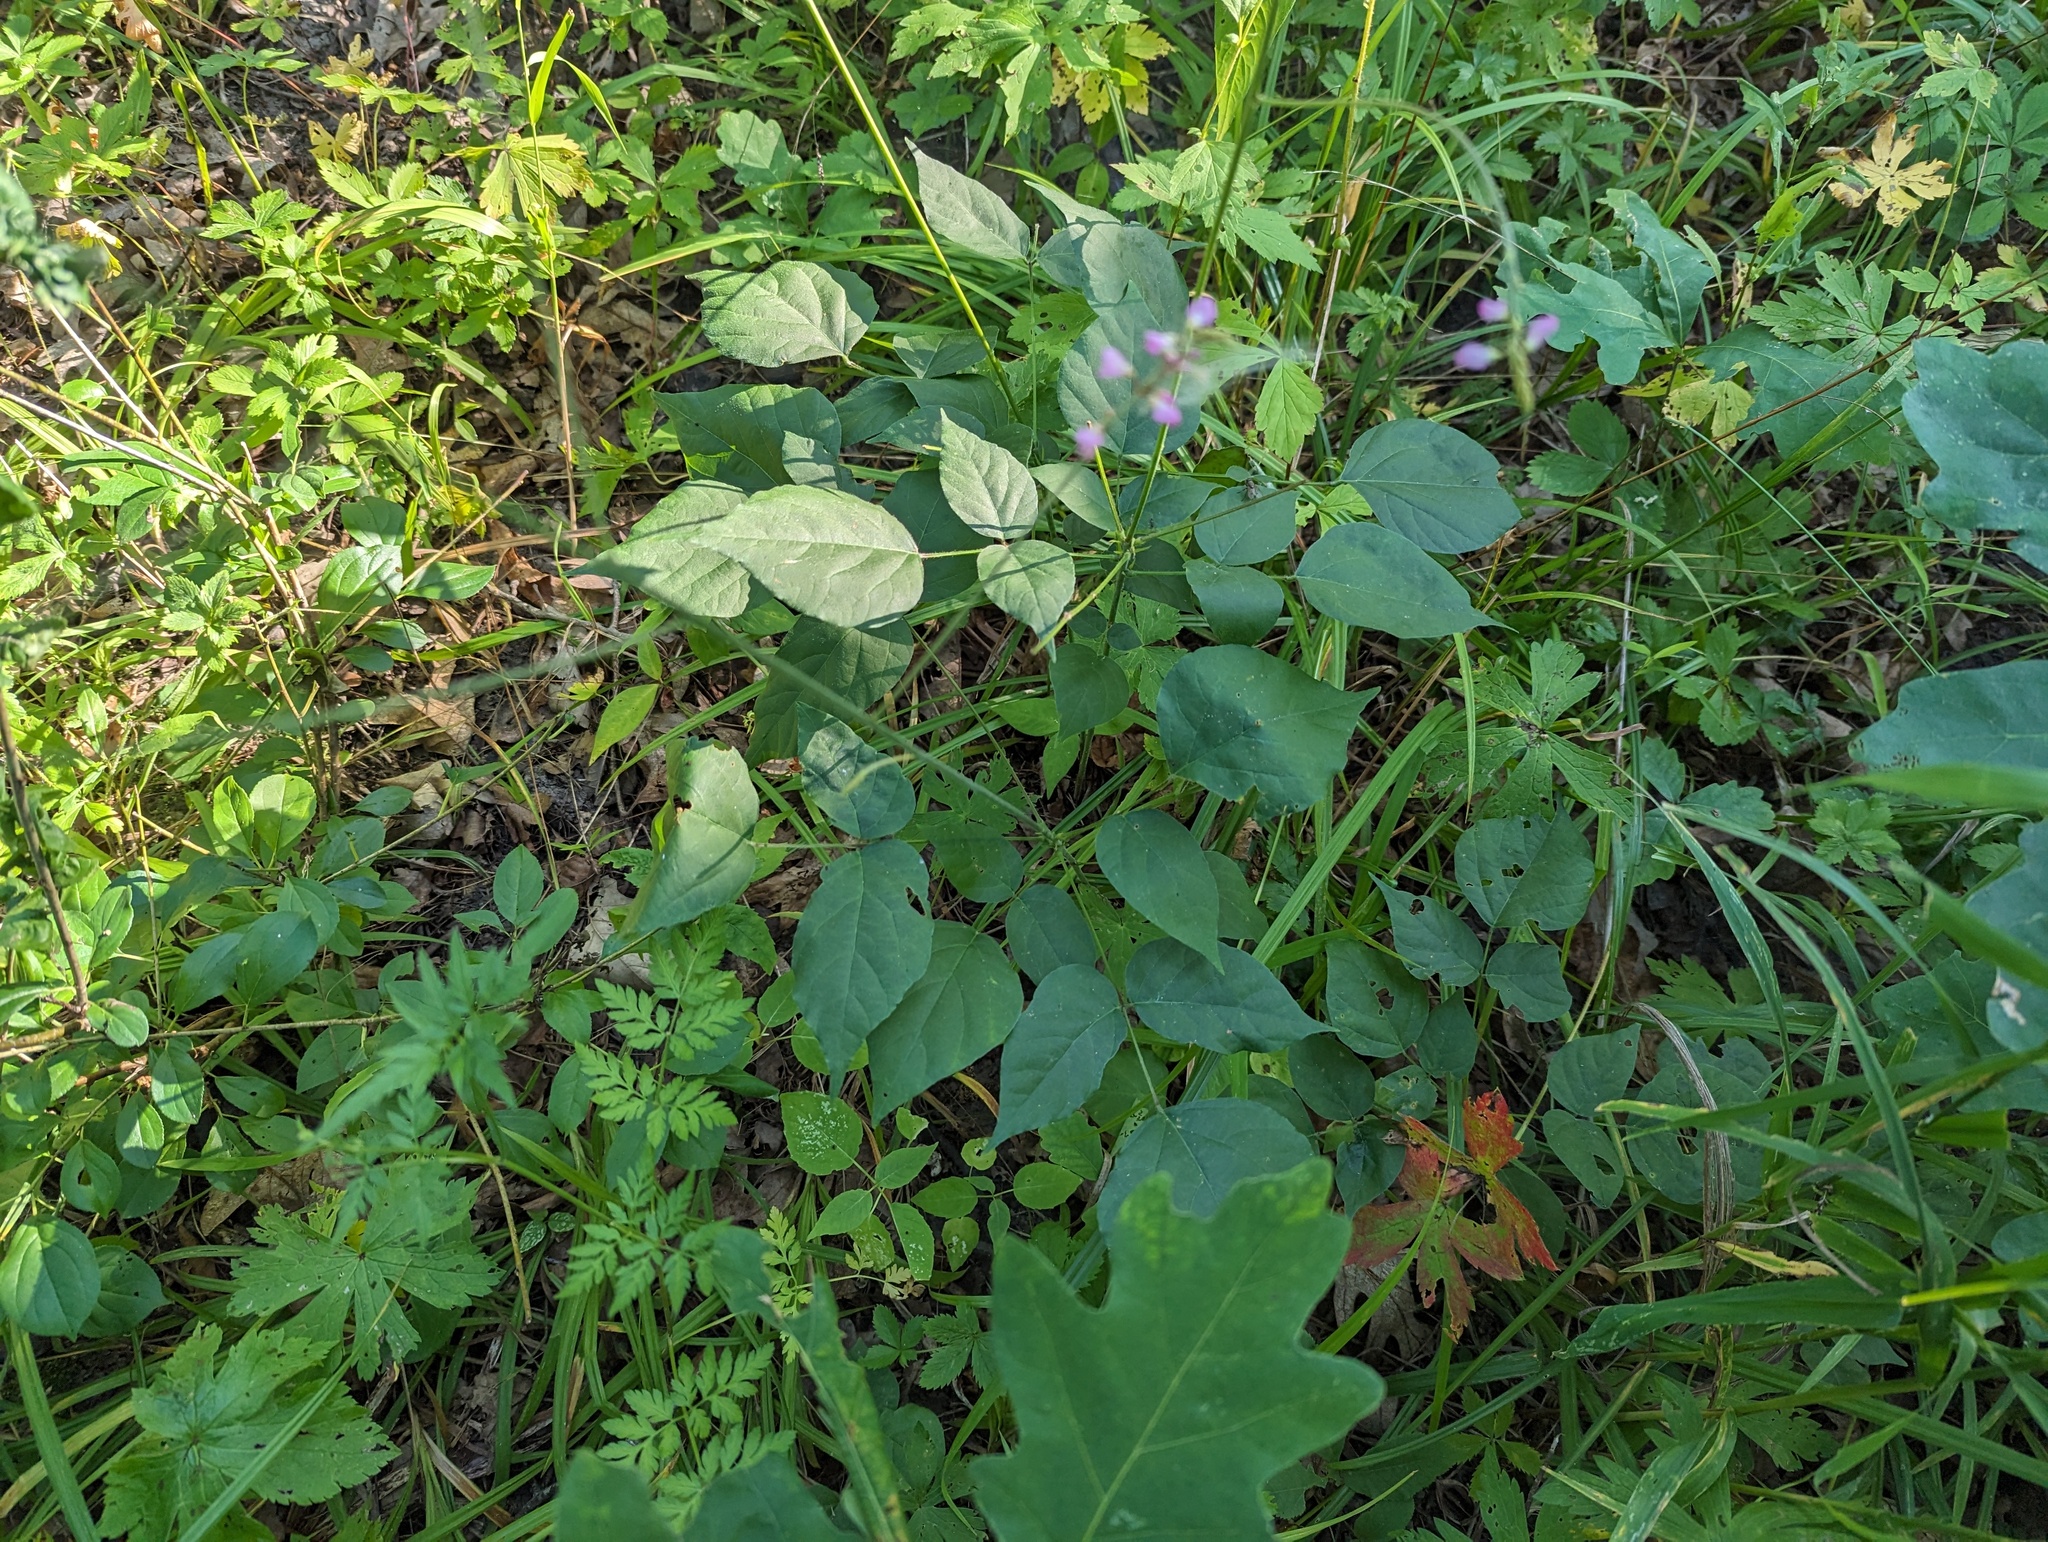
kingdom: Plantae
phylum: Tracheophyta
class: Magnoliopsida
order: Fabales
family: Fabaceae
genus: Hylodesmum
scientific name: Hylodesmum glutinosum
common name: Clustered-leaved tick-trefoil
